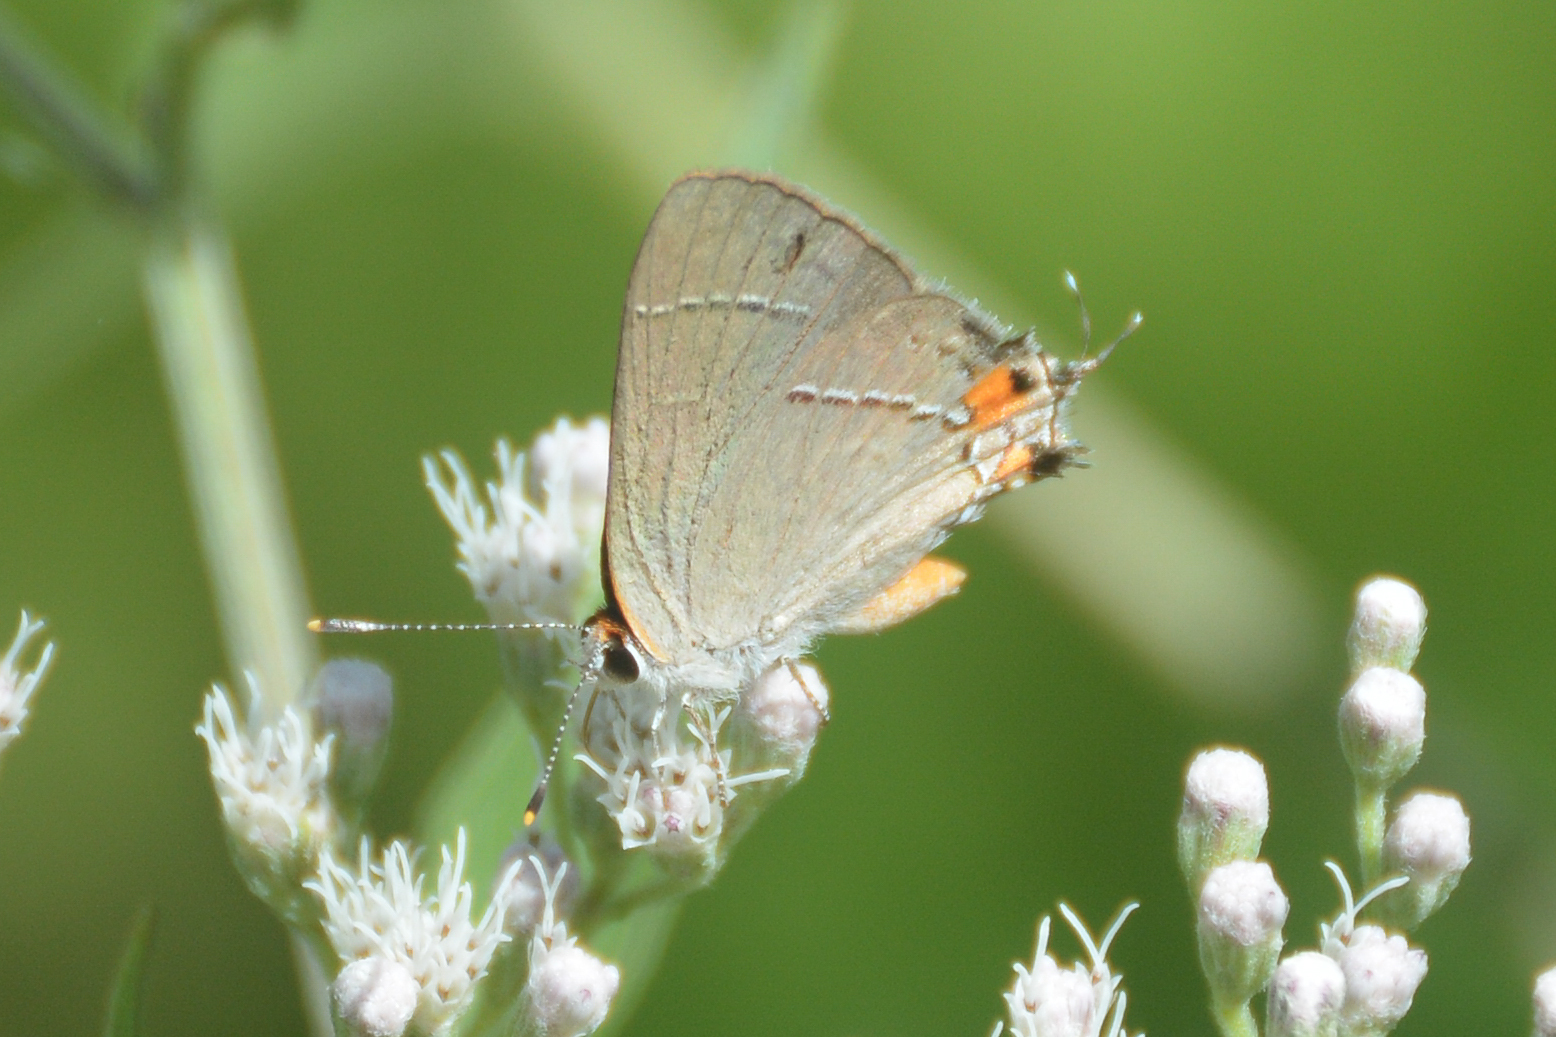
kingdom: Animalia
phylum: Arthropoda
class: Insecta
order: Lepidoptera
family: Lycaenidae
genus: Strymon
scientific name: Strymon melinus
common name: Gray hairstreak
